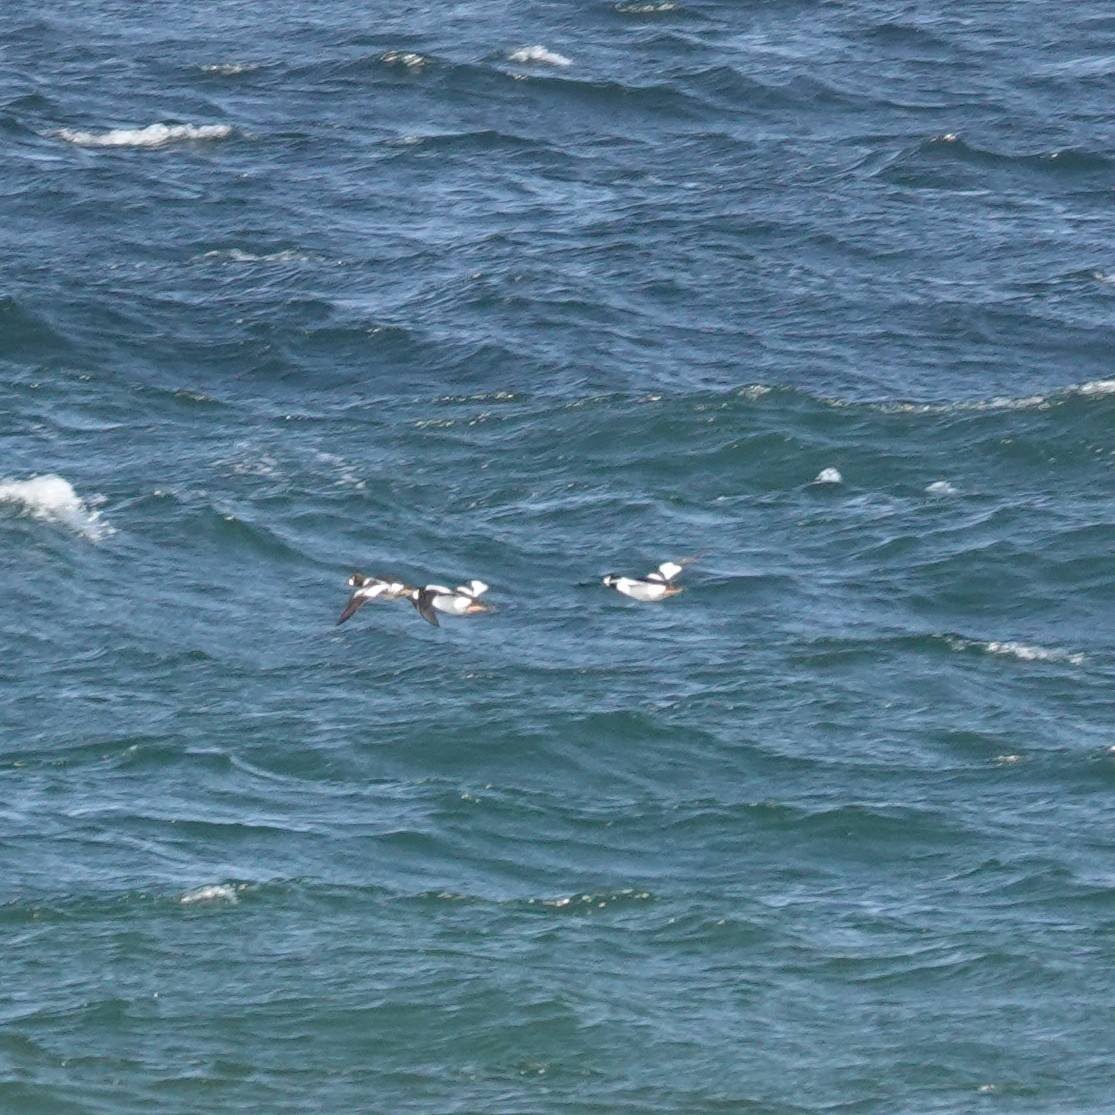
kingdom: Animalia
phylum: Chordata
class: Aves
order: Anseriformes
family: Anatidae
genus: Bucephala
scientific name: Bucephala clangula
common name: Common goldeneye
